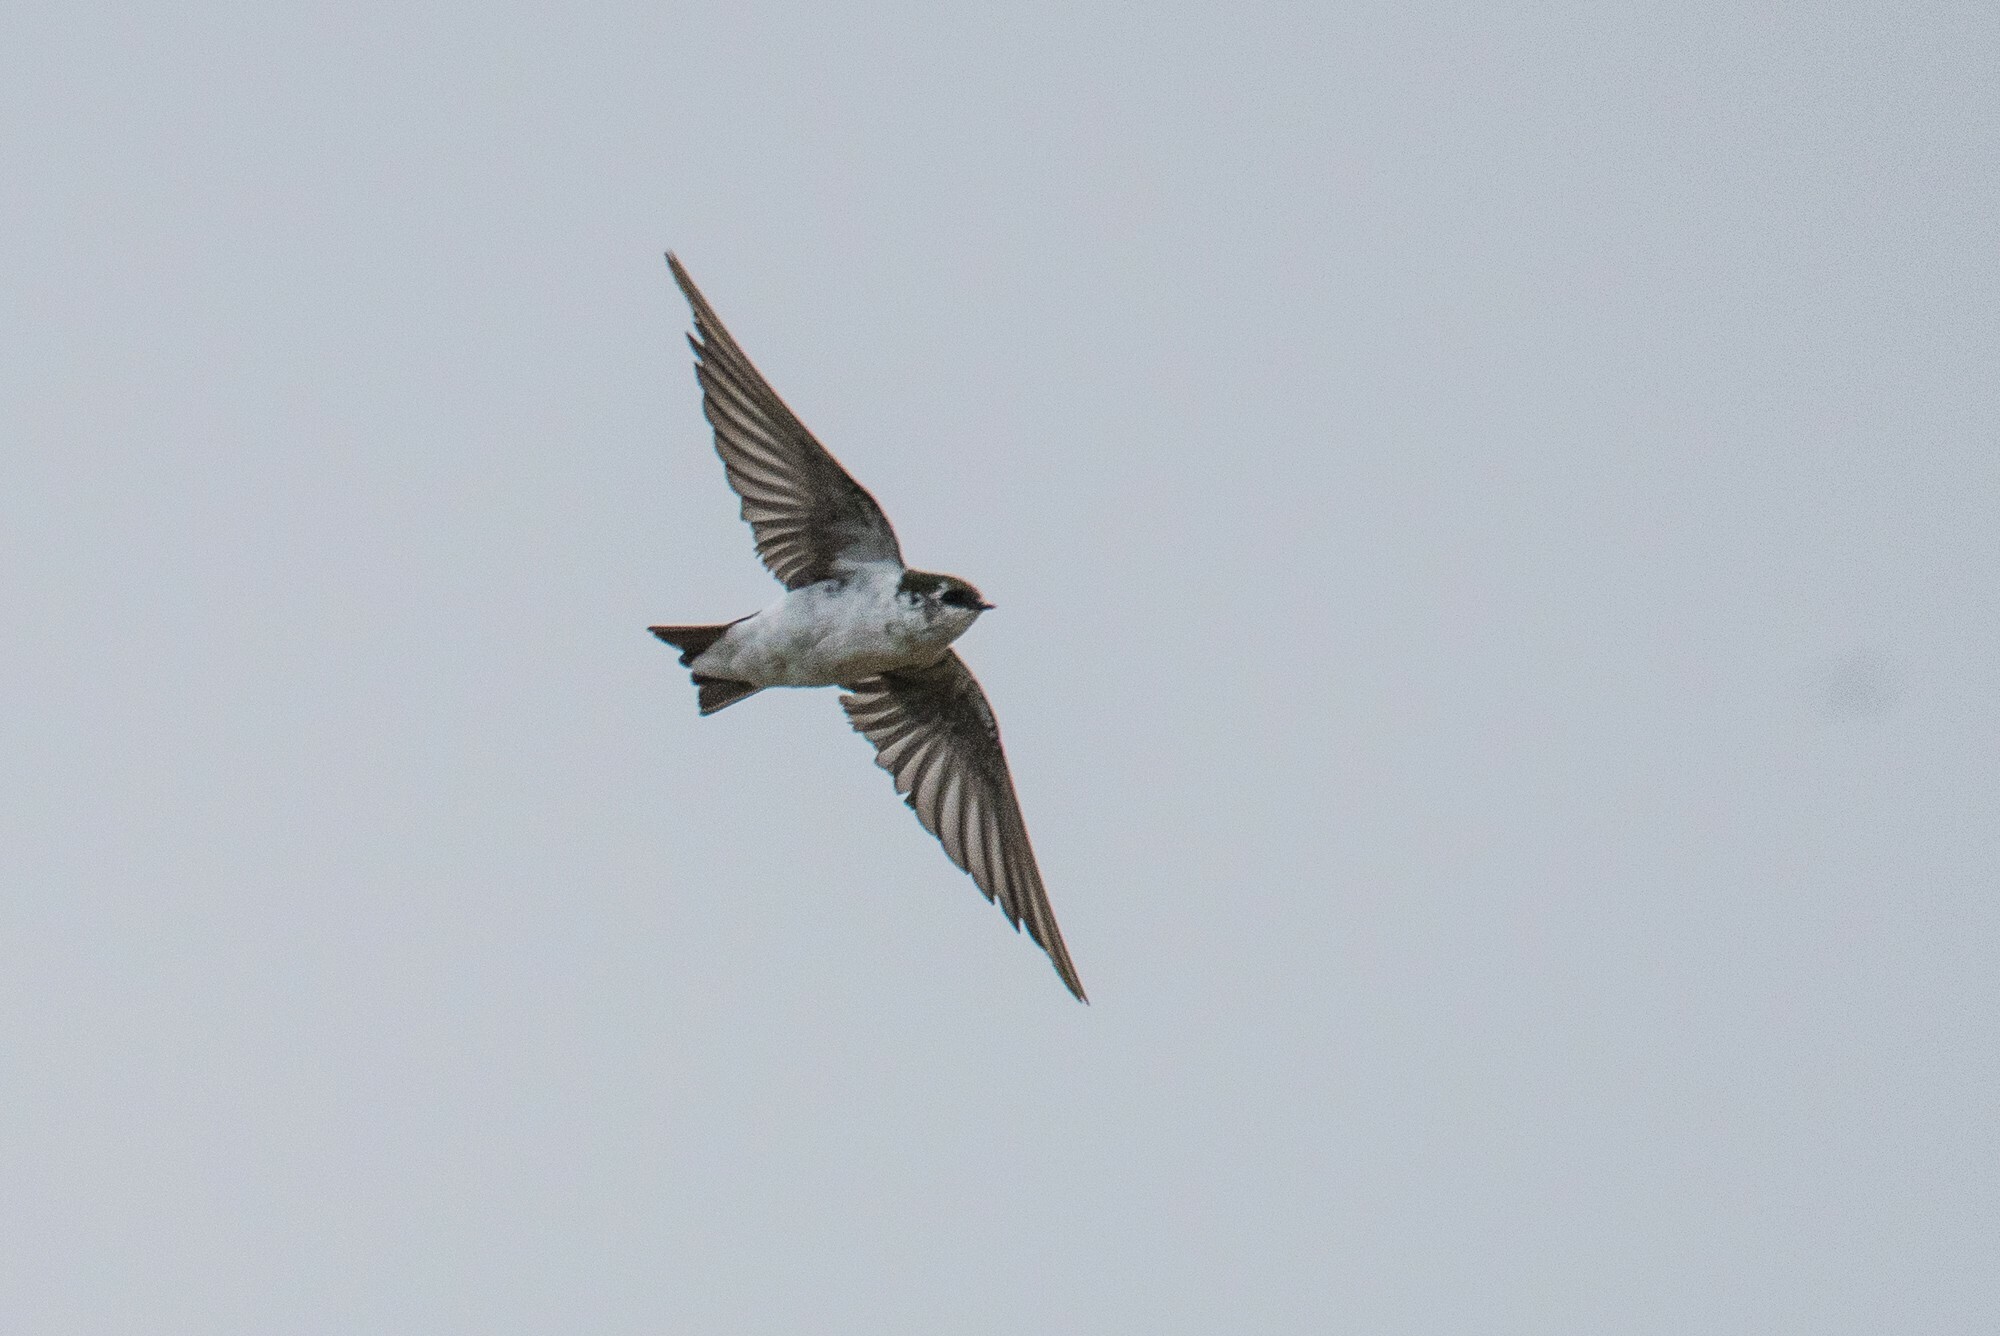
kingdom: Animalia
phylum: Chordata
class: Aves
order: Passeriformes
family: Hirundinidae
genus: Tachycineta
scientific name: Tachycineta thalassina
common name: Violet-green swallow
